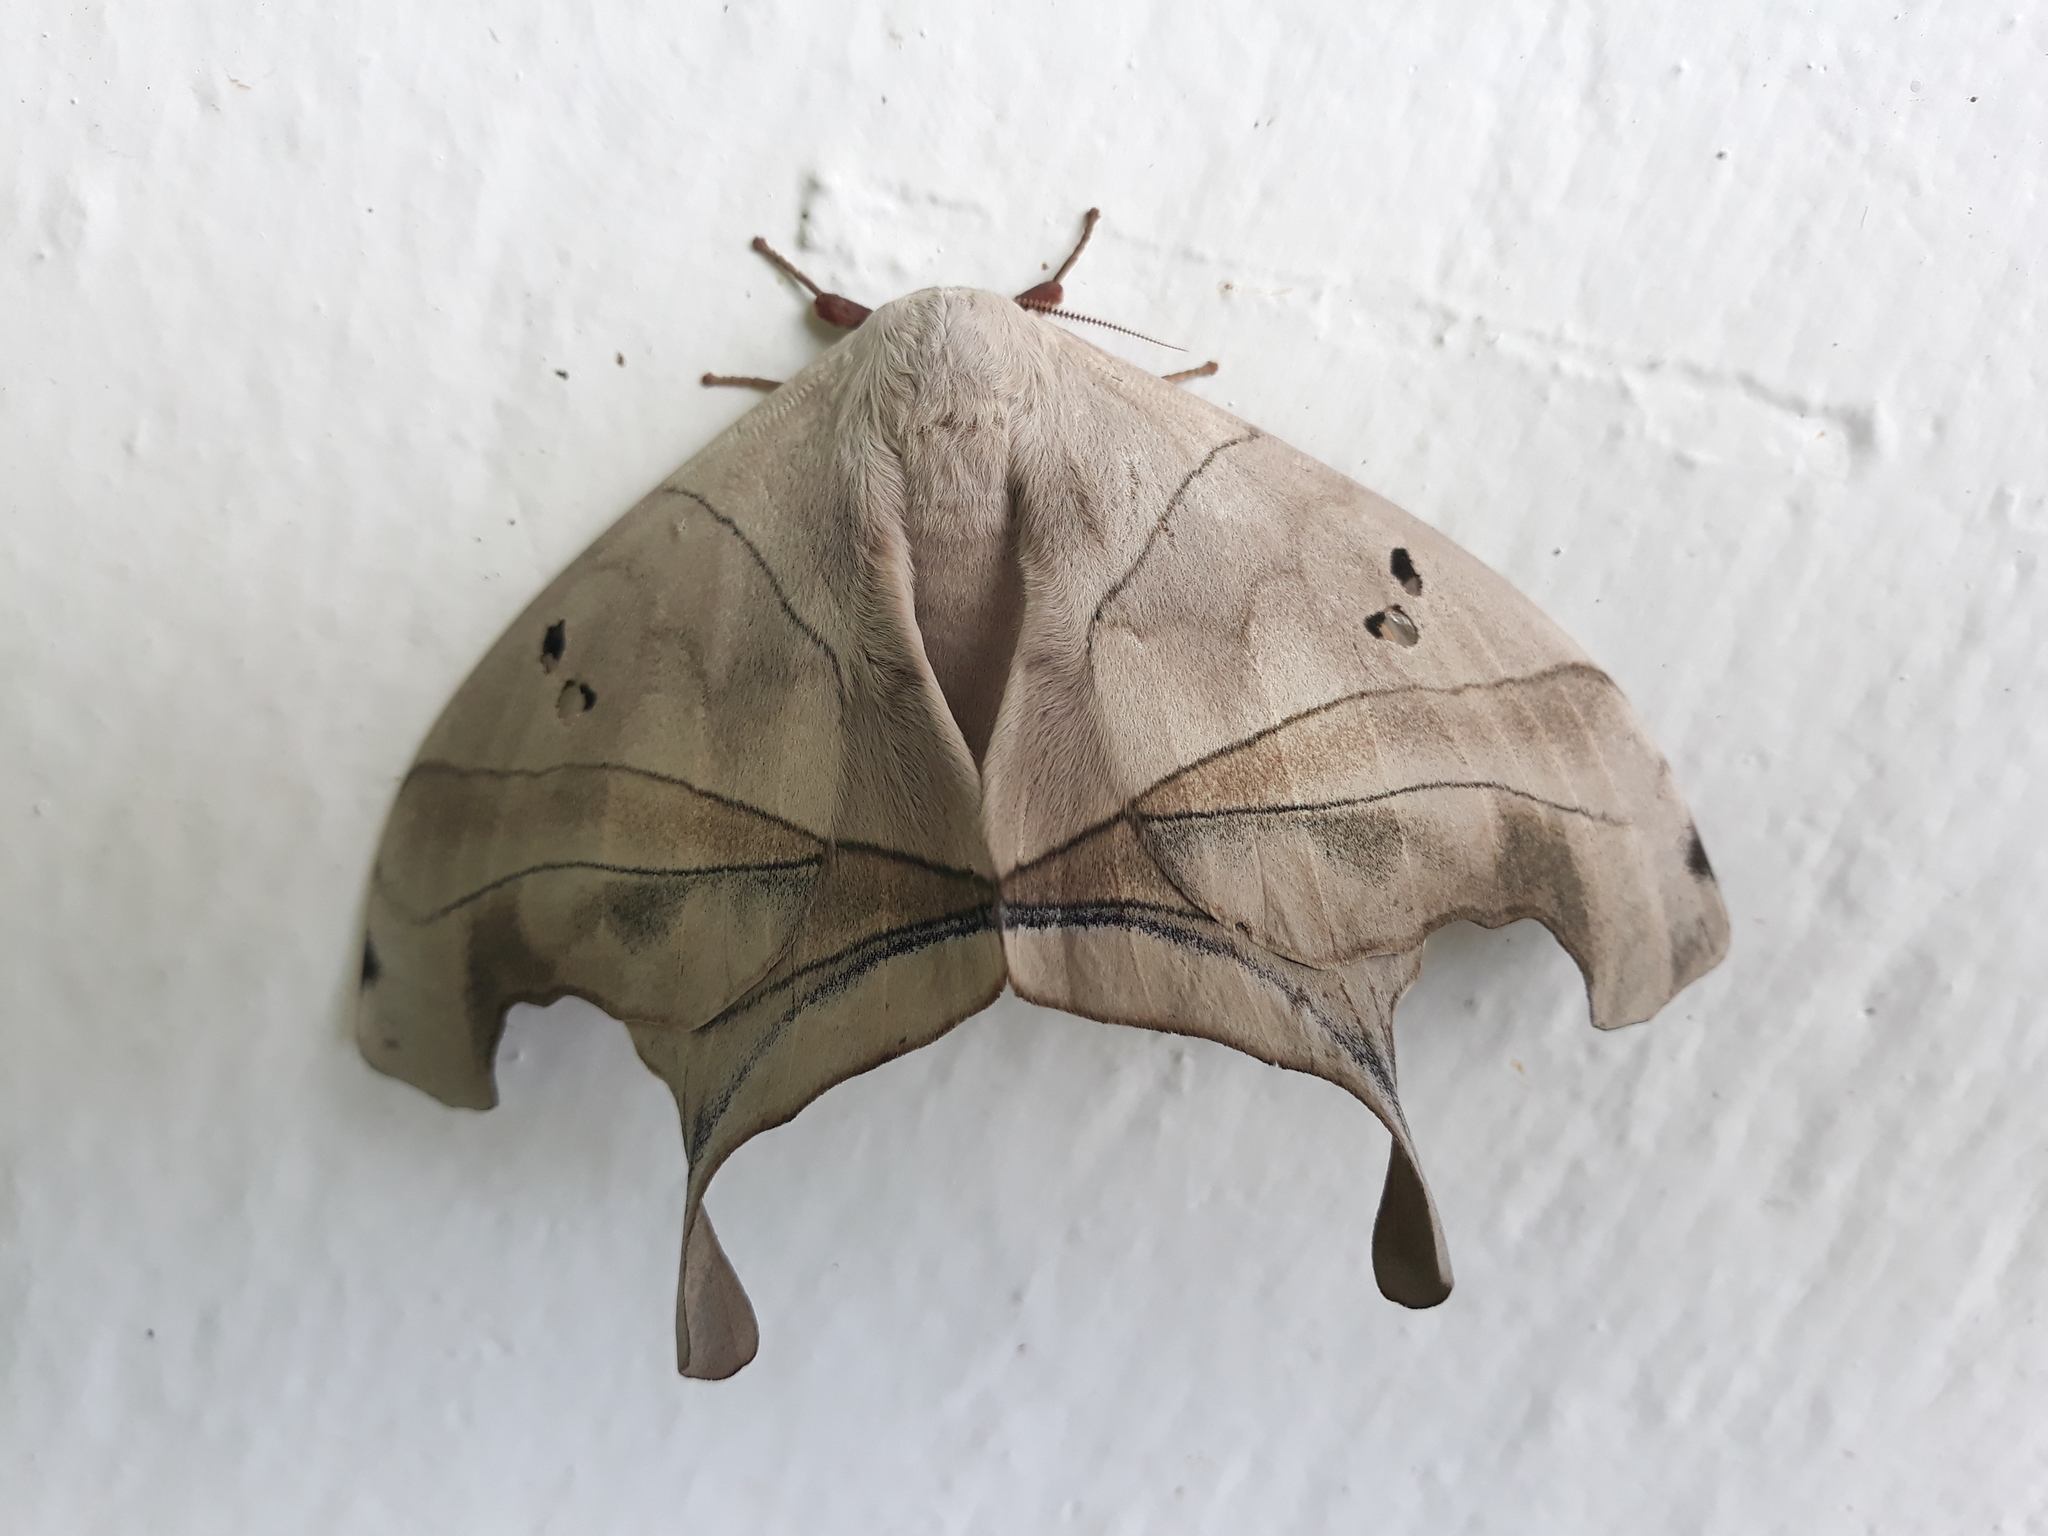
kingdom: Animalia
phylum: Arthropoda
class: Insecta
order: Lepidoptera
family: Saturniidae
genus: Dysdaemonia
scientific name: Dysdaemonia boreas
